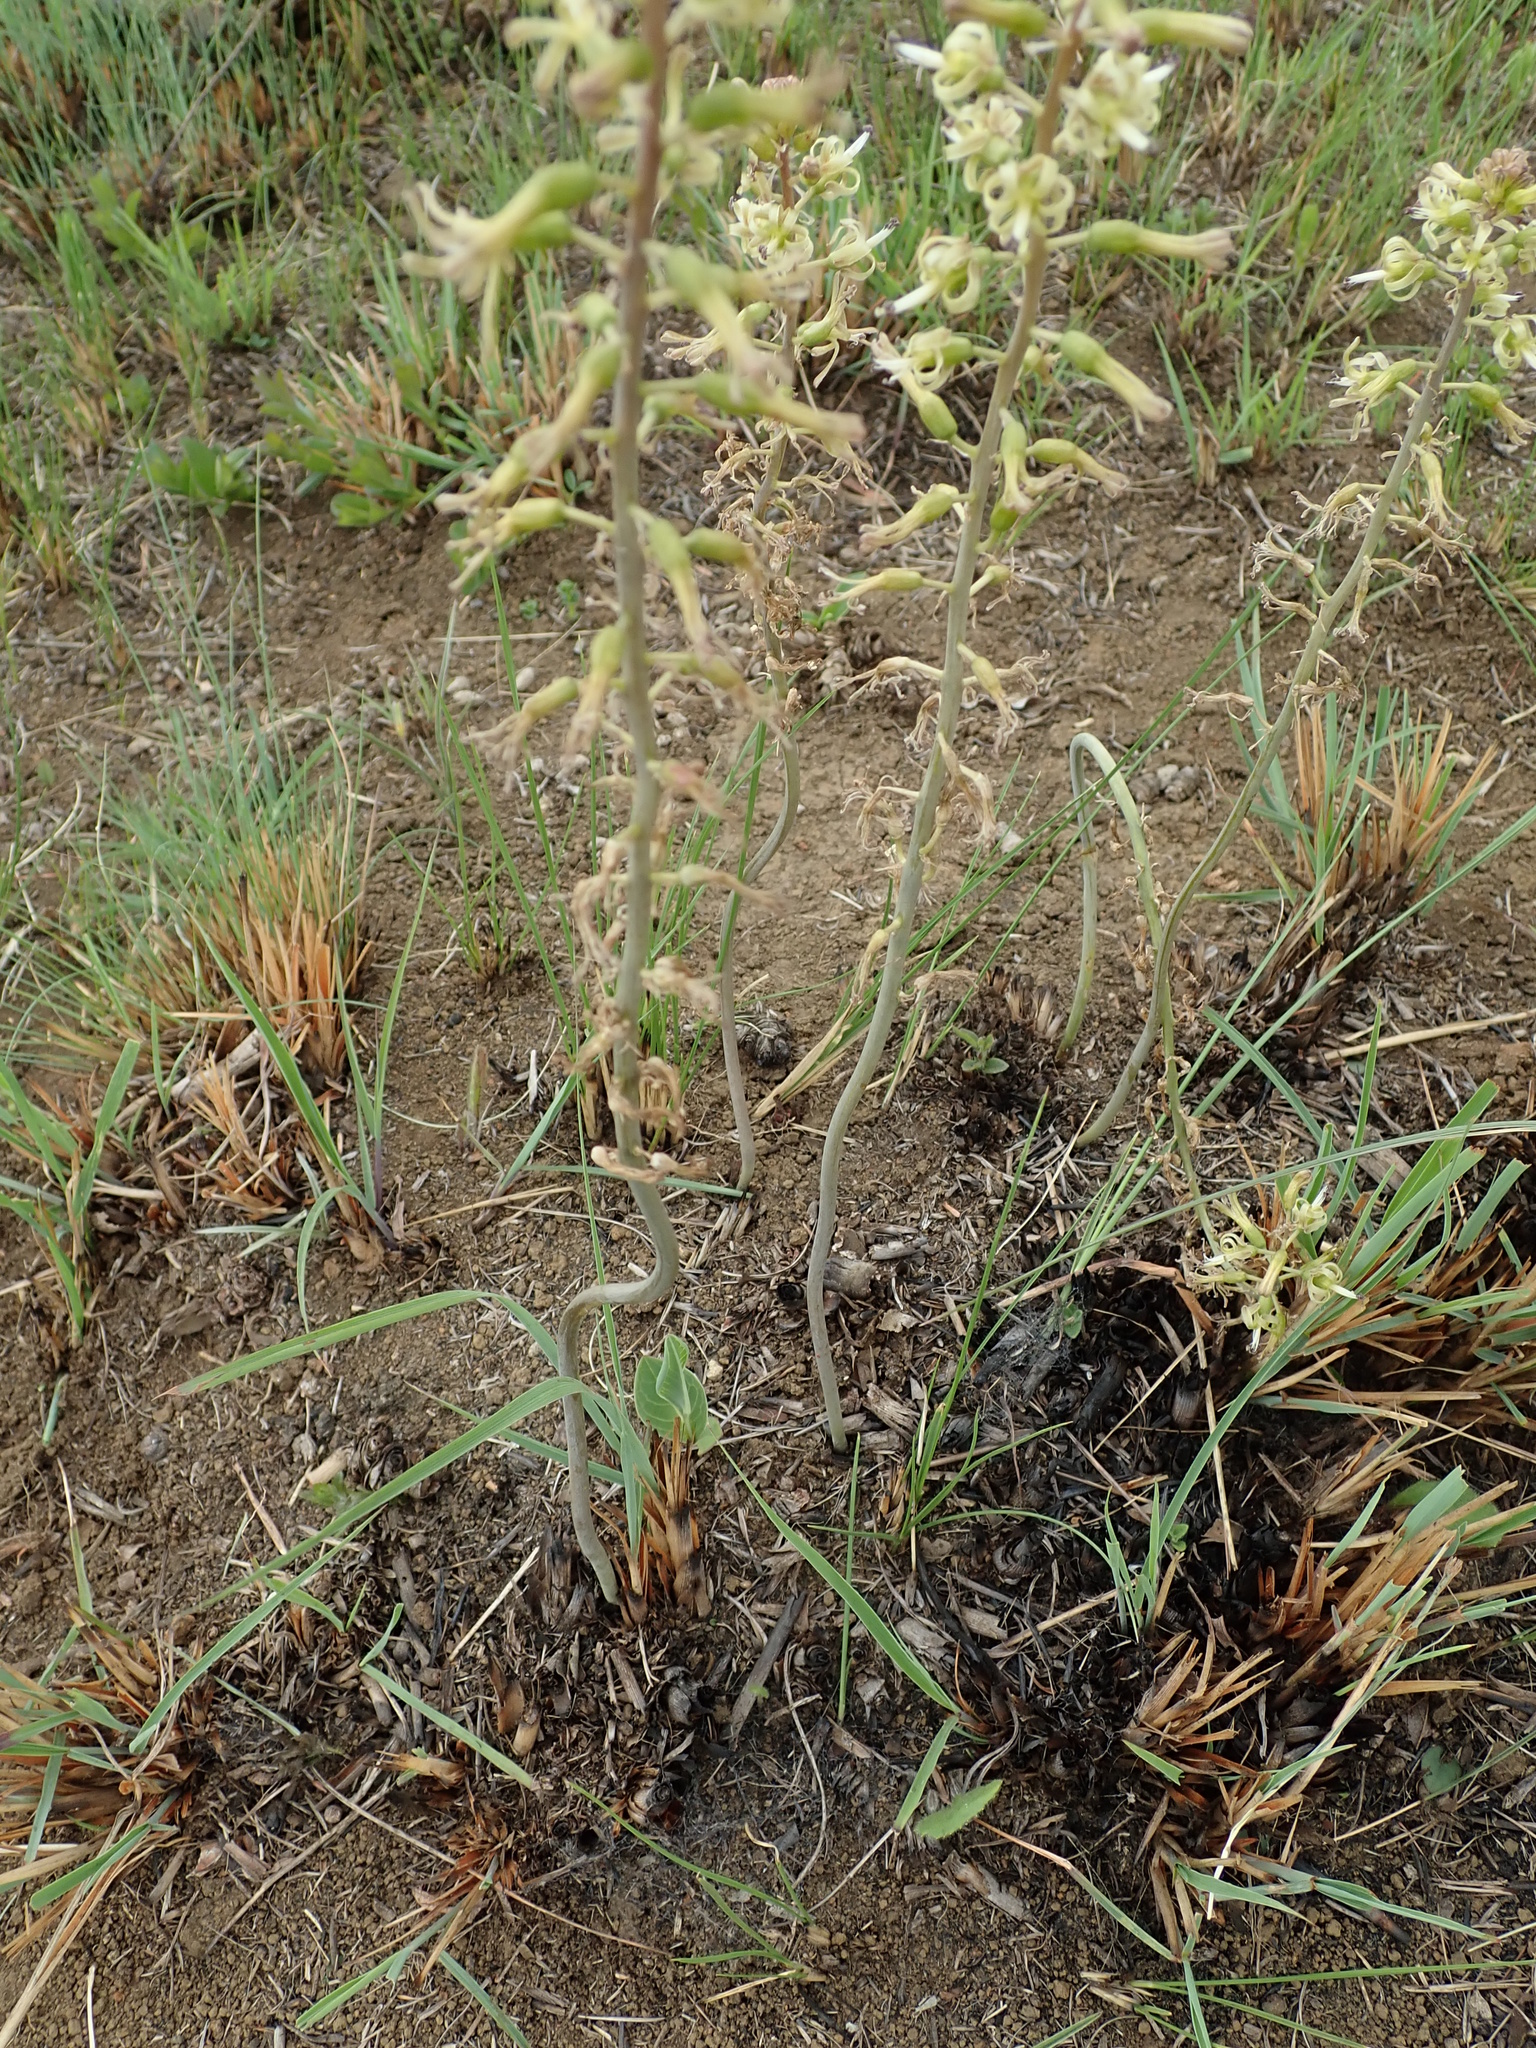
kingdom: Plantae
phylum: Tracheophyta
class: Liliopsida
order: Asparagales
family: Asparagaceae
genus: Drimia
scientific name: Drimia elata
